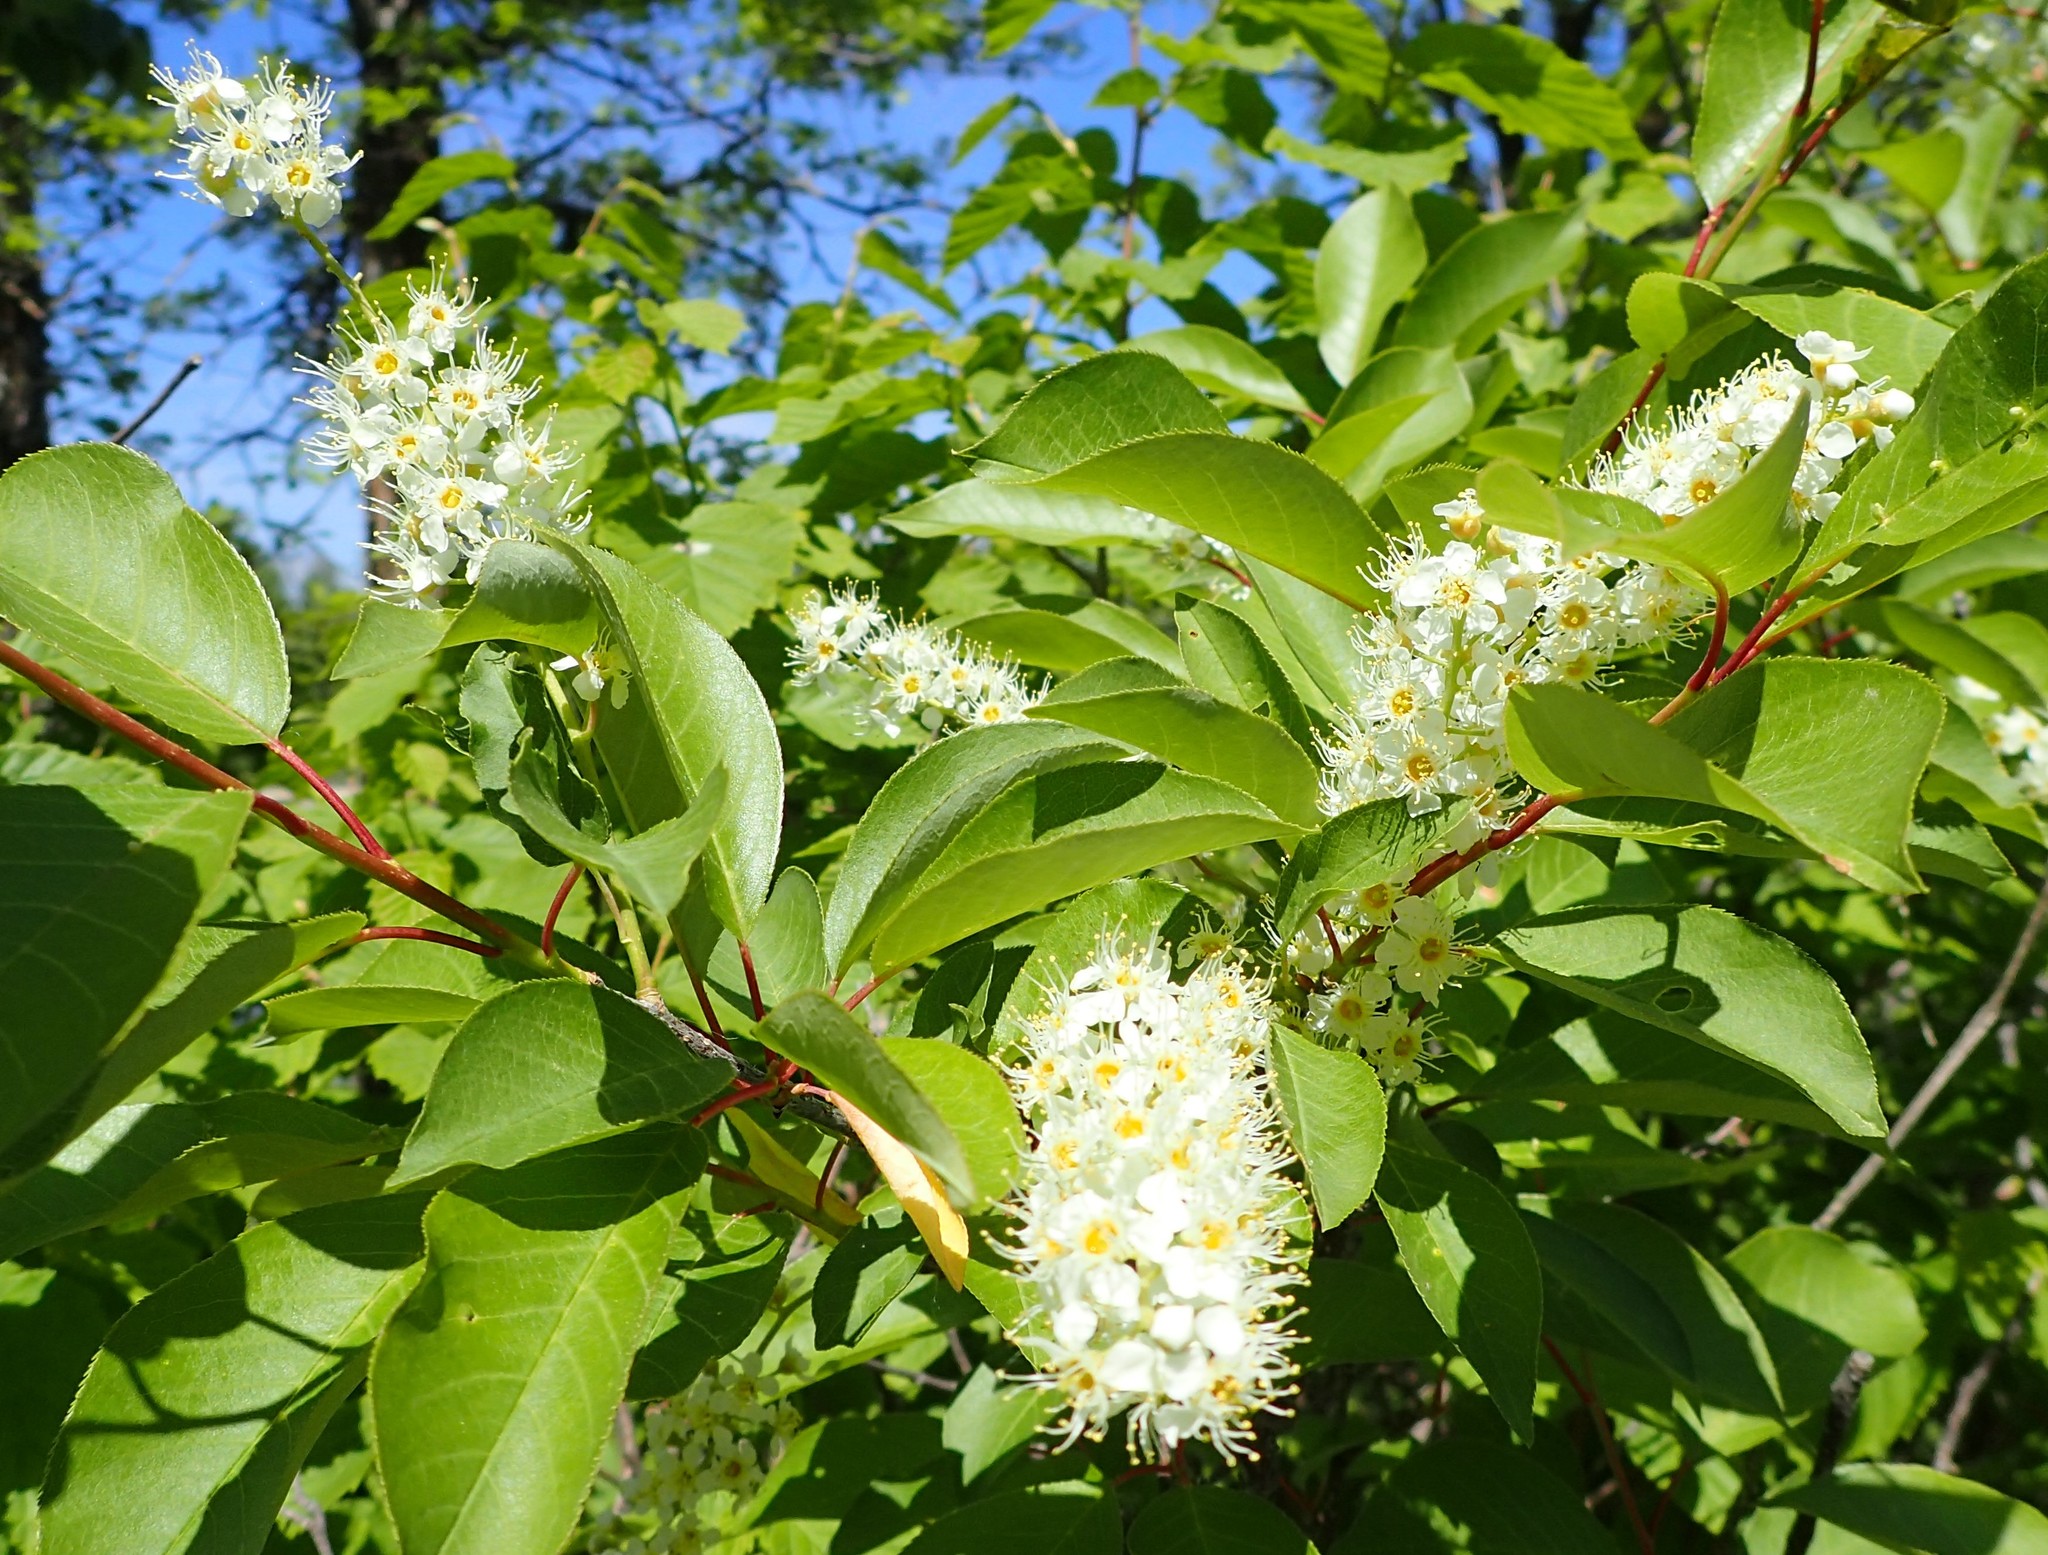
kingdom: Plantae
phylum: Tracheophyta
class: Magnoliopsida
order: Rosales
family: Rosaceae
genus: Prunus
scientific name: Prunus virginiana
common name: Chokecherry
